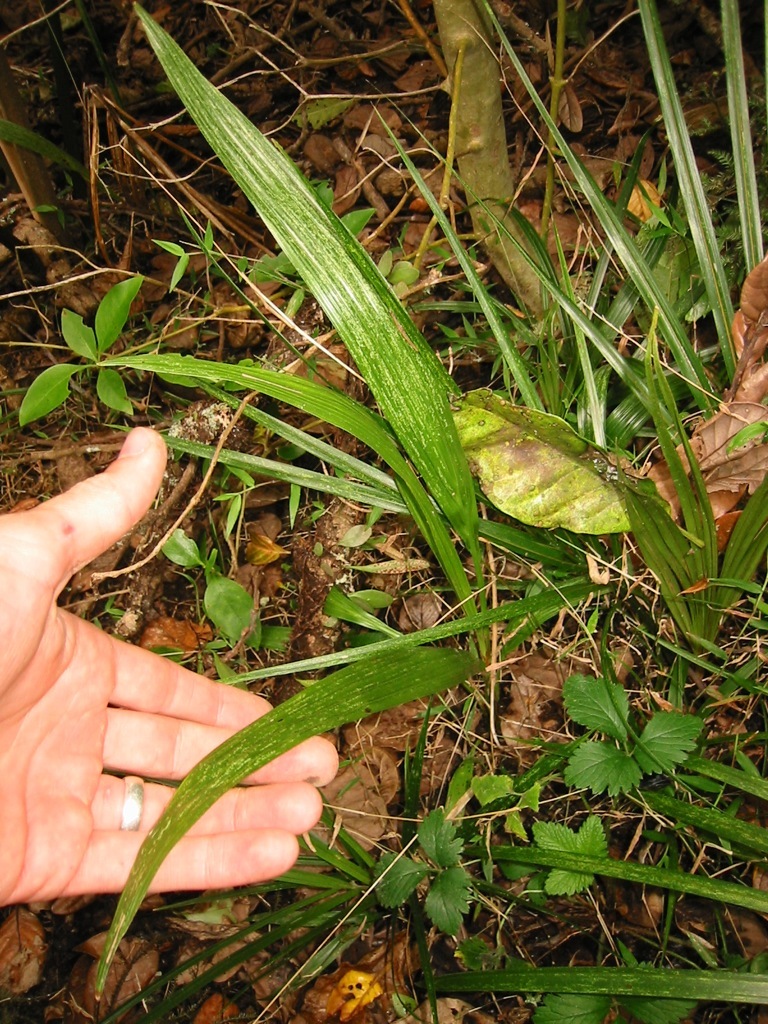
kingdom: Plantae
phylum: Tracheophyta
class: Liliopsida
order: Arecales
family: Arecaceae
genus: Syagrus
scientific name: Syagrus romanzoffiana
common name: Queen palm
